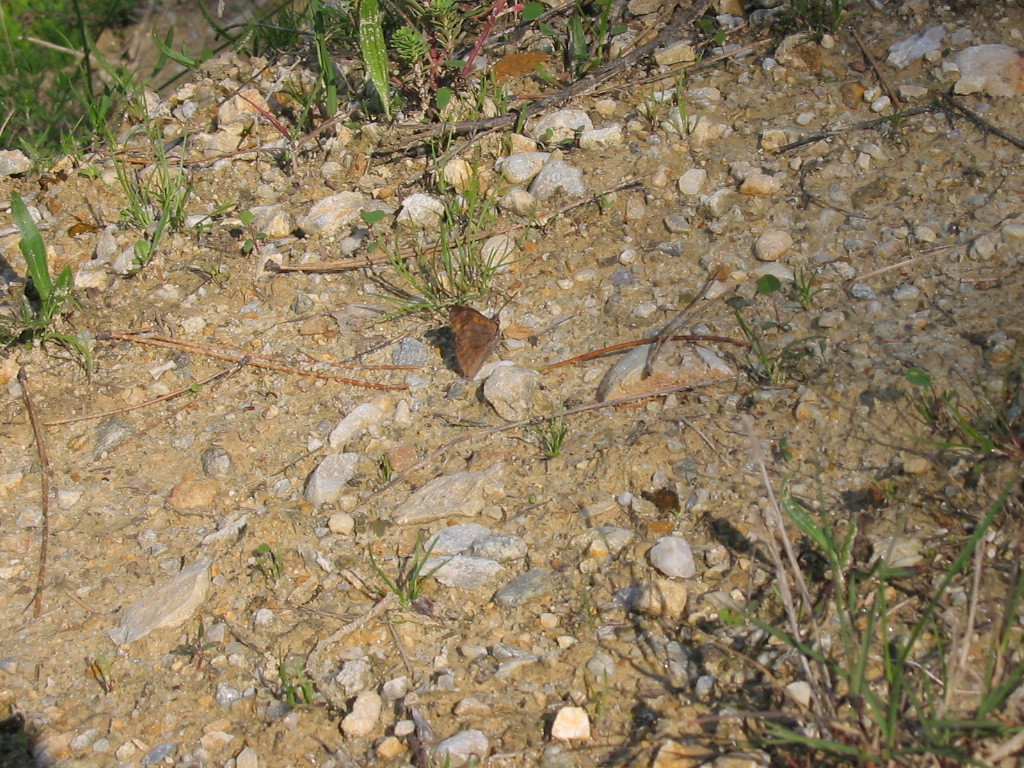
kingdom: Animalia
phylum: Arthropoda
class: Insecta
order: Lepidoptera
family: Nymphalidae
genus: Libythea
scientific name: Libythea celtis
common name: Nettle-tree butterfly
